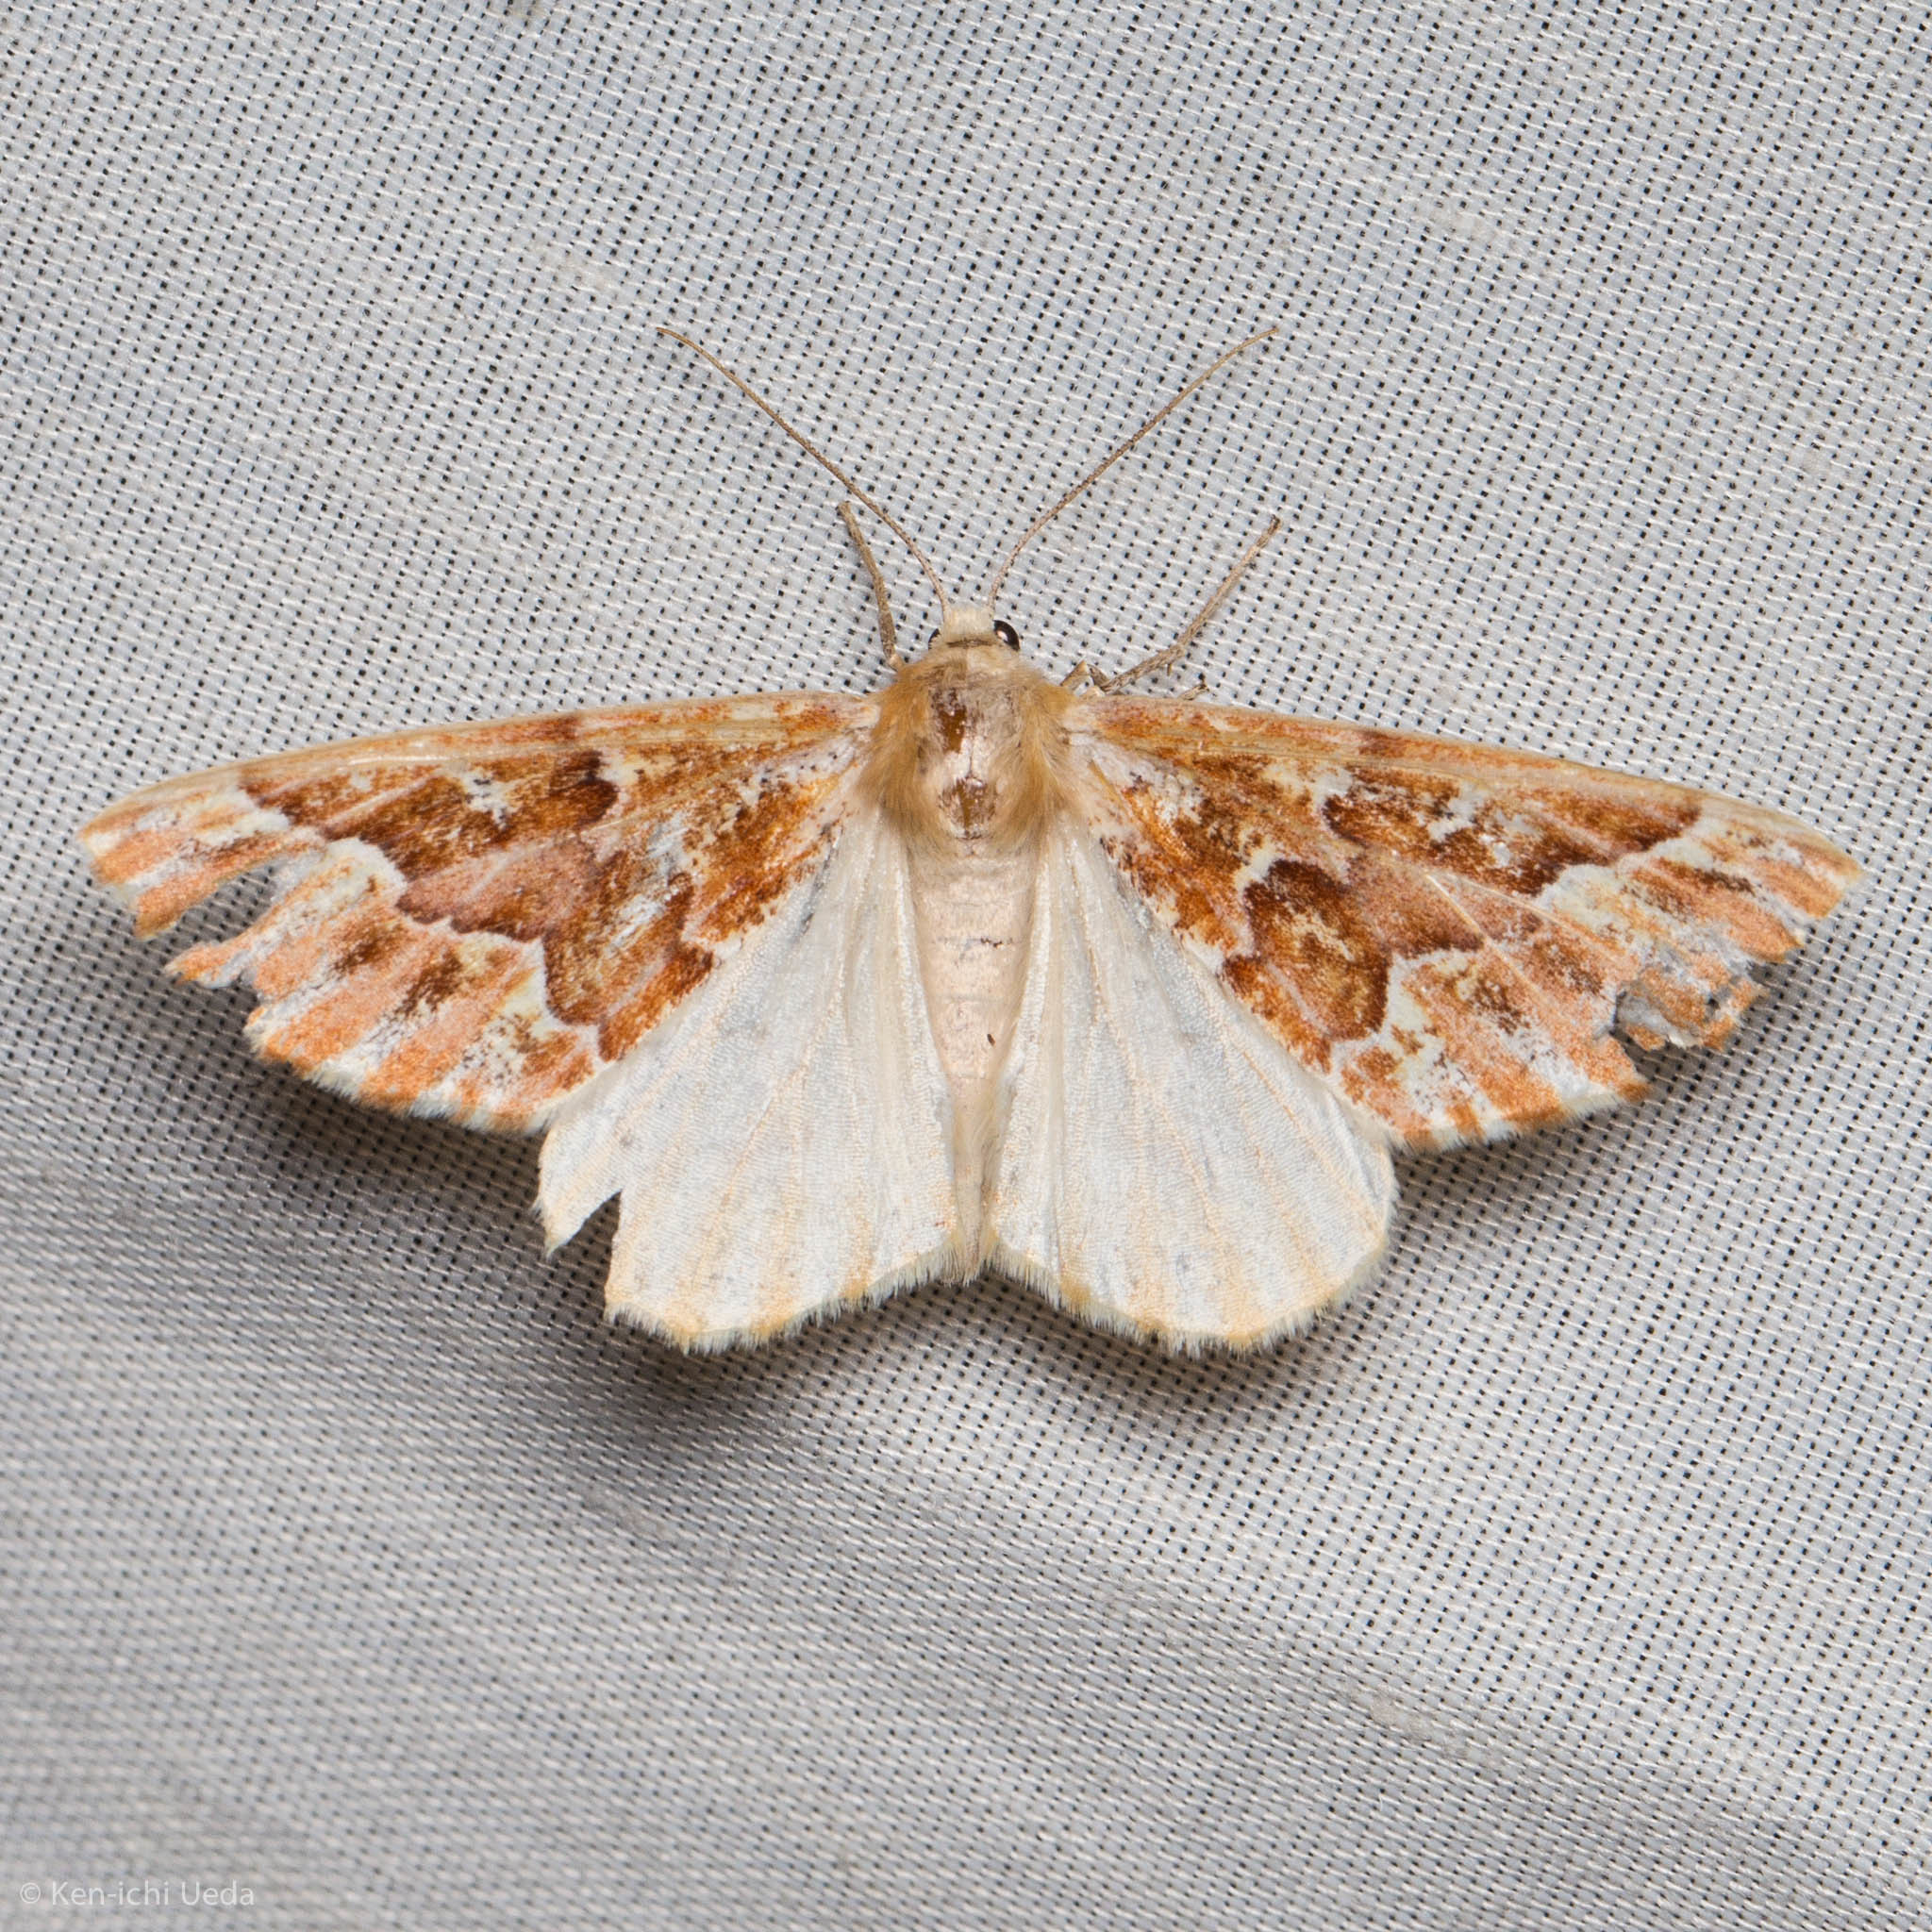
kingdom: Animalia
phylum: Arthropoda
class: Insecta
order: Lepidoptera
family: Geometridae
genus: Caripeta
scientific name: Caripeta aequaliaria
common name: Red girdle moth
